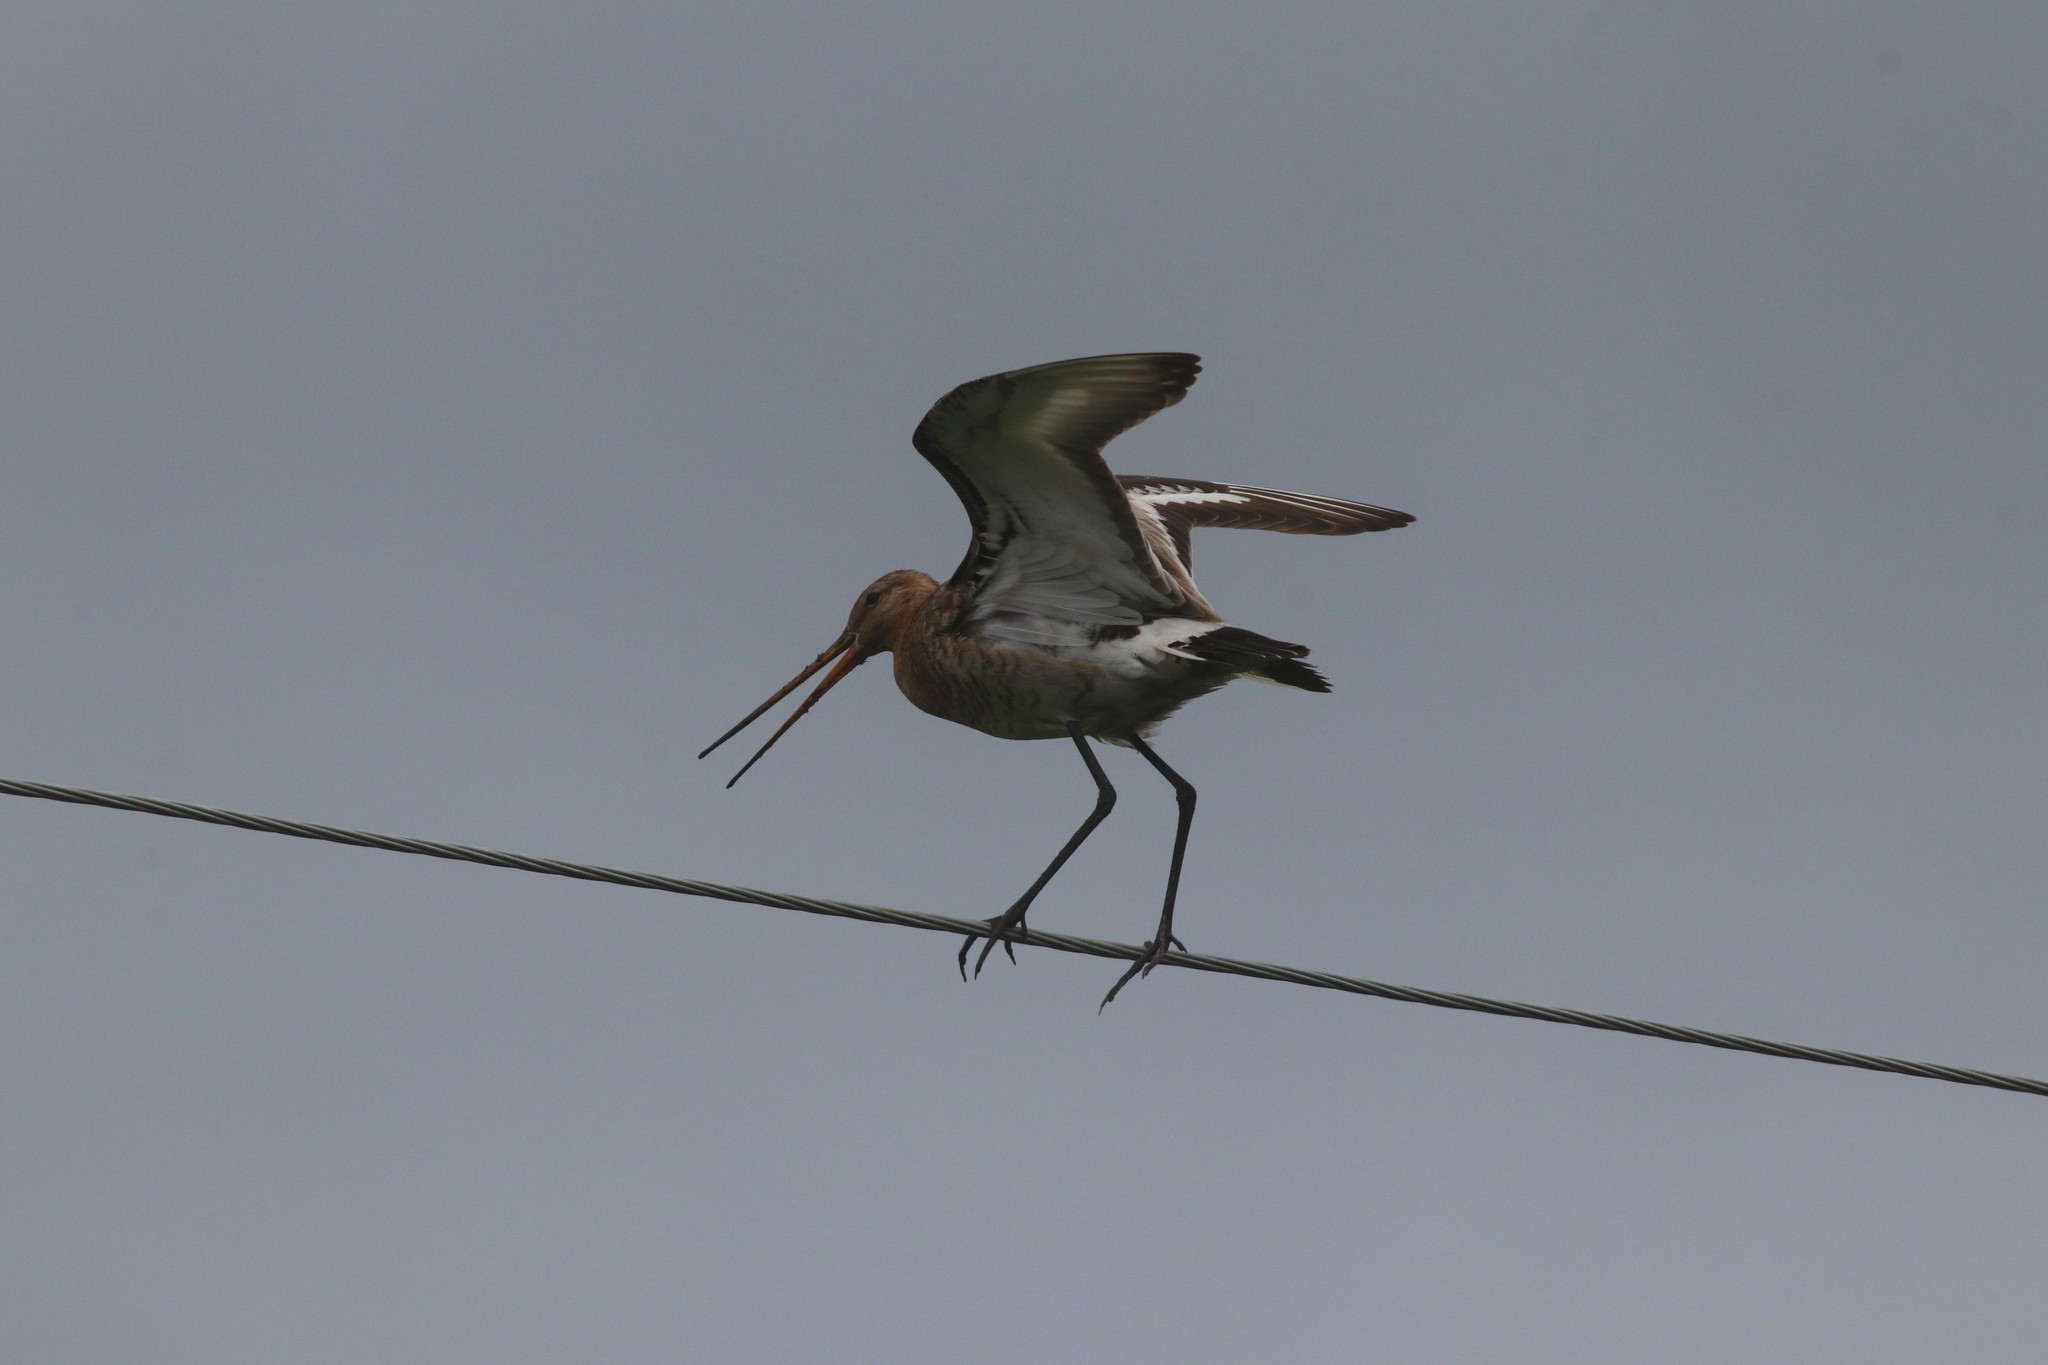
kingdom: Animalia
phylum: Chordata
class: Aves
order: Charadriiformes
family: Scolopacidae
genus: Limosa
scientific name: Limosa limosa
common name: Black-tailed godwit
